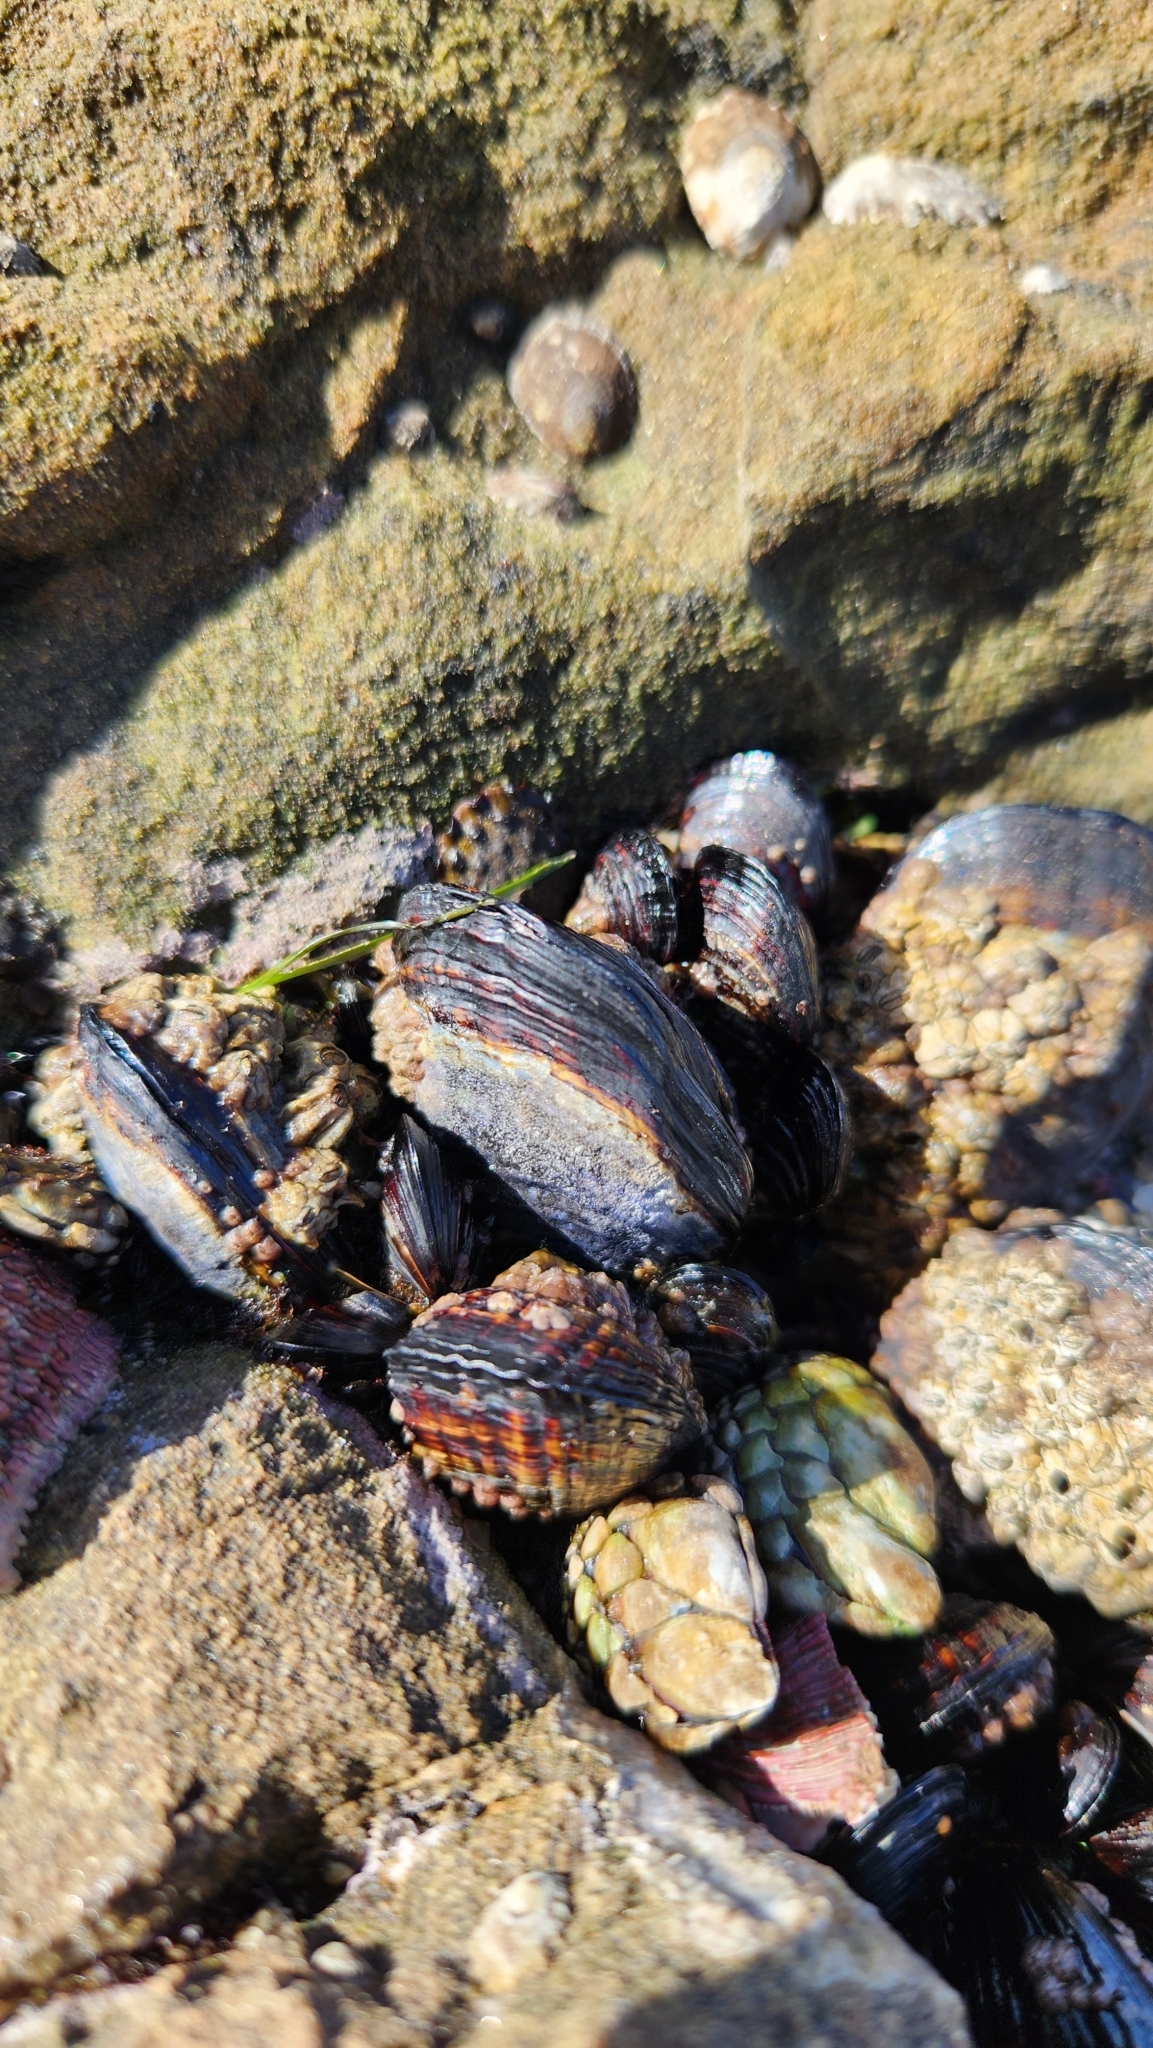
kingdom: Animalia
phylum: Mollusca
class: Bivalvia
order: Mytilida
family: Mytilidae
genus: Mytilus
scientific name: Mytilus californianus
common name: California mussel
